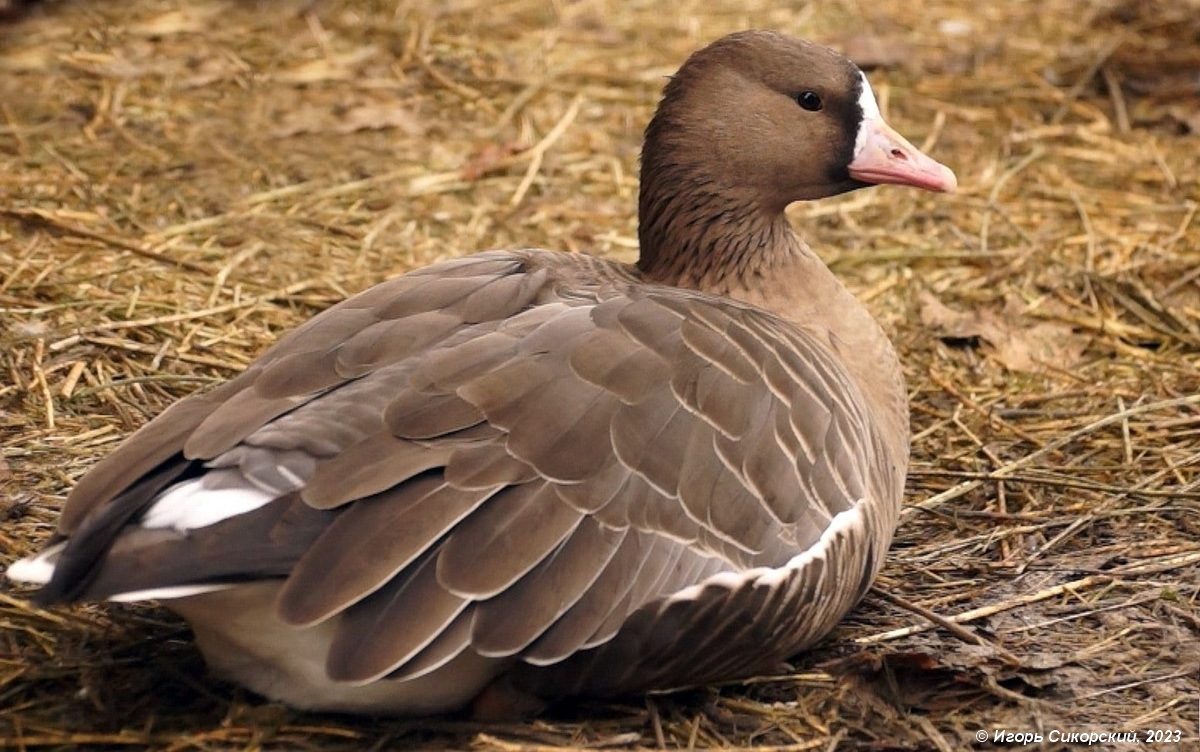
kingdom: Animalia
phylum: Chordata
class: Aves
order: Anseriformes
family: Anatidae
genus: Anser
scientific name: Anser albifrons
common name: Greater white-fronted goose
